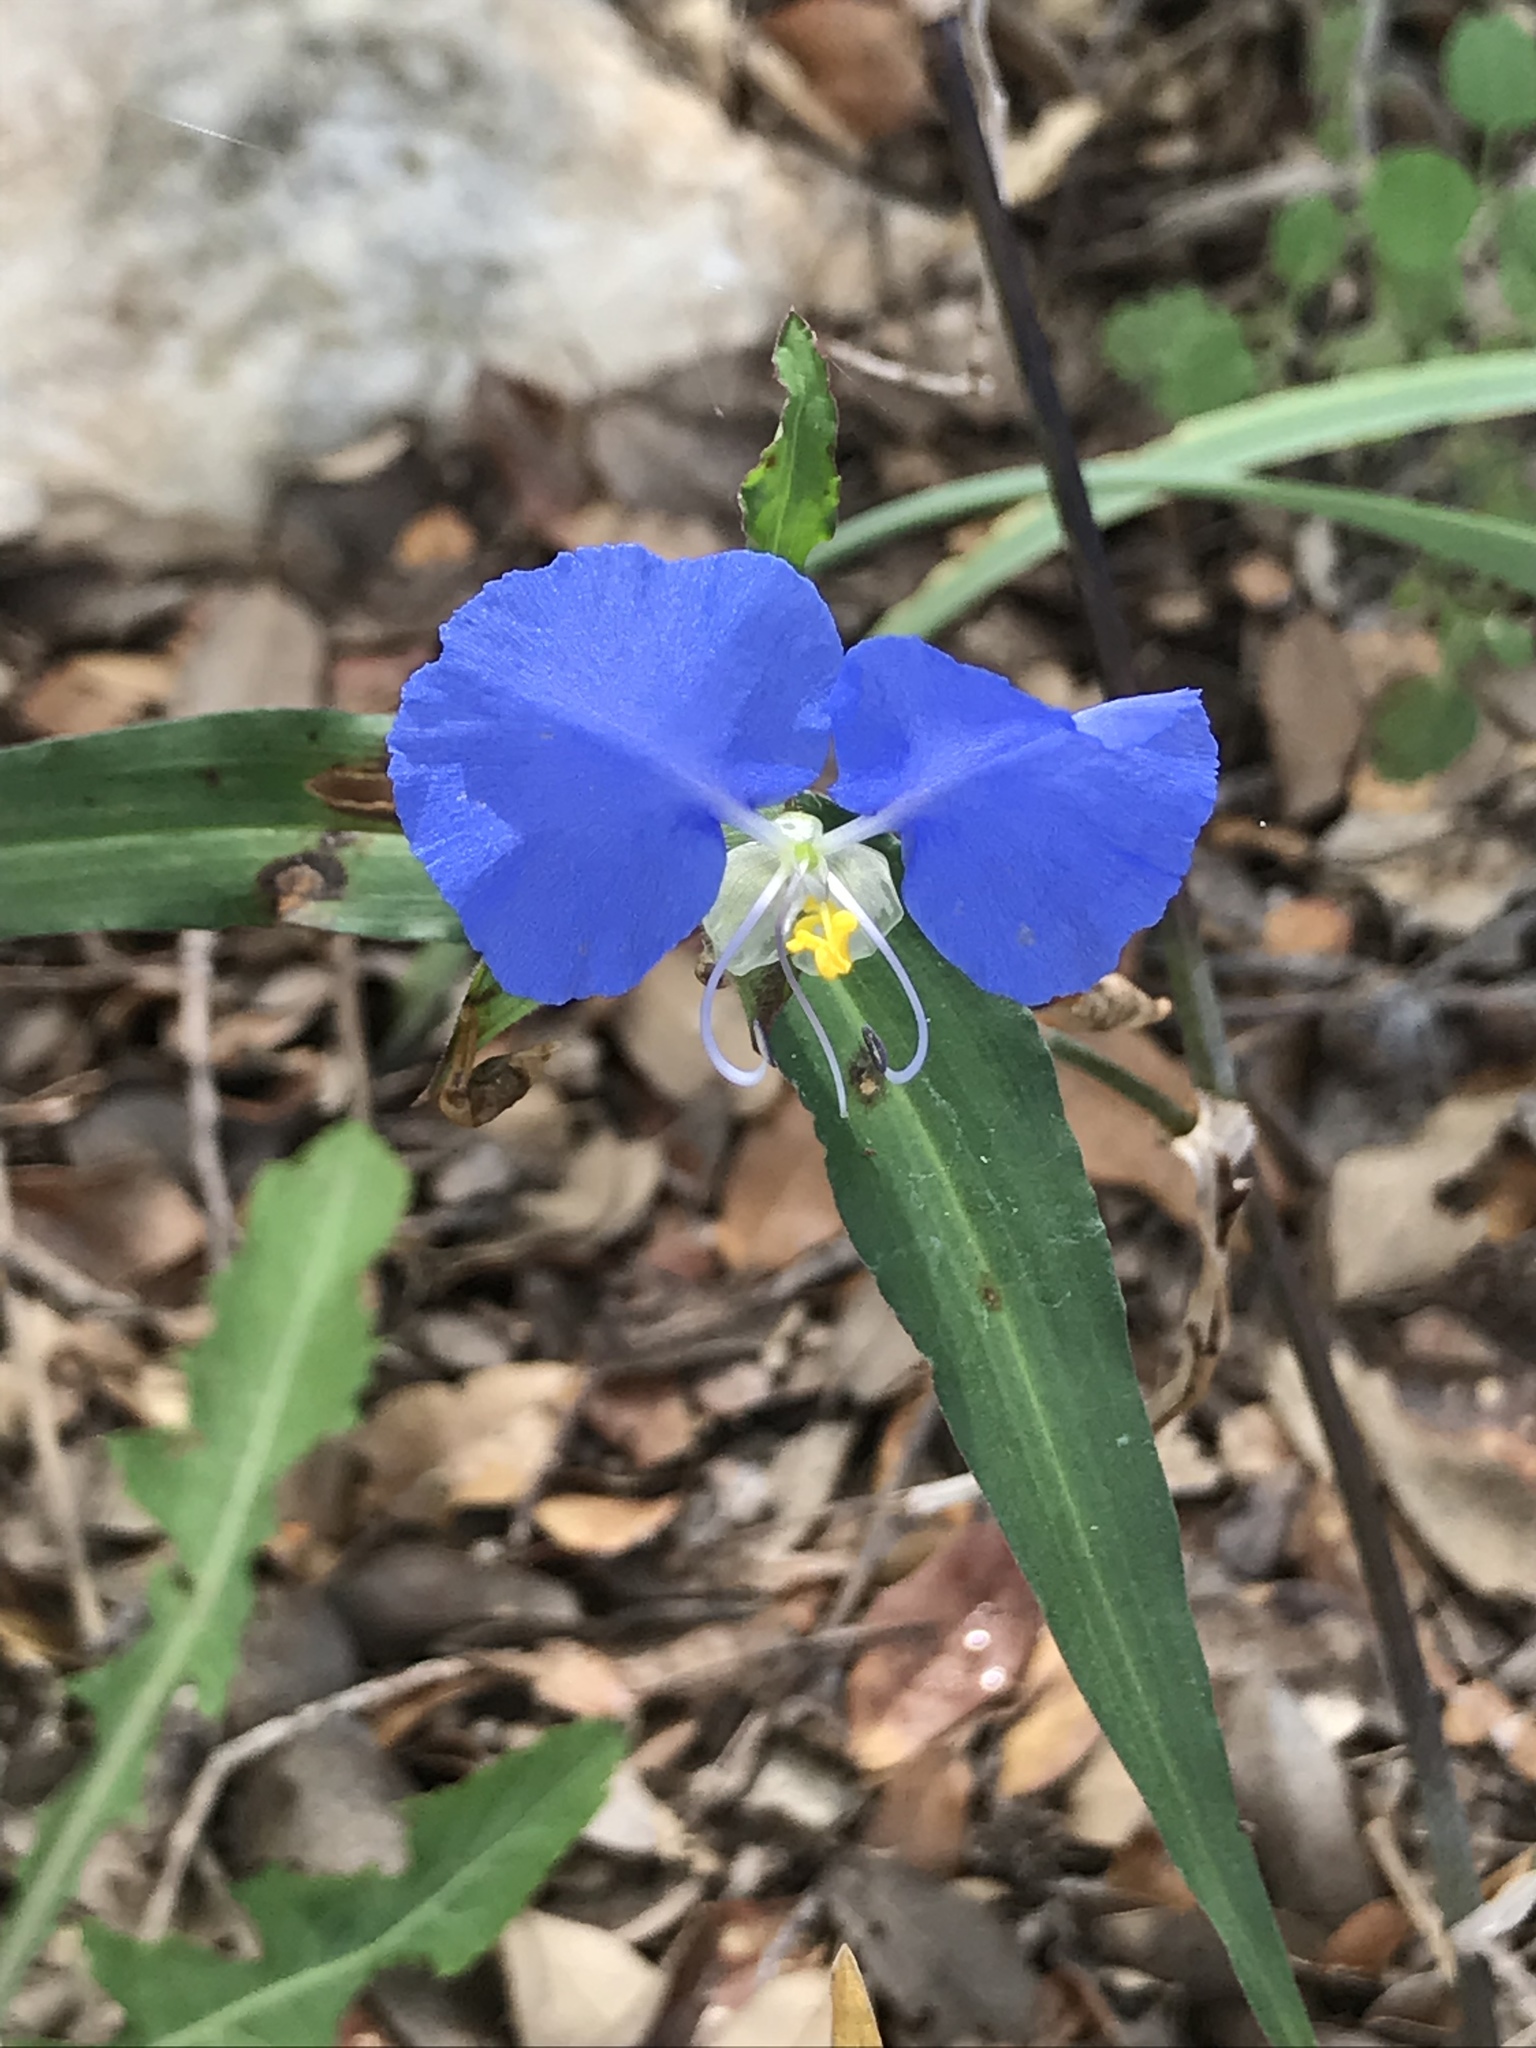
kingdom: Plantae
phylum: Tracheophyta
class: Liliopsida
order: Commelinales
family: Commelinaceae
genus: Commelina
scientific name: Commelina erecta
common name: Blousel blommetjie
